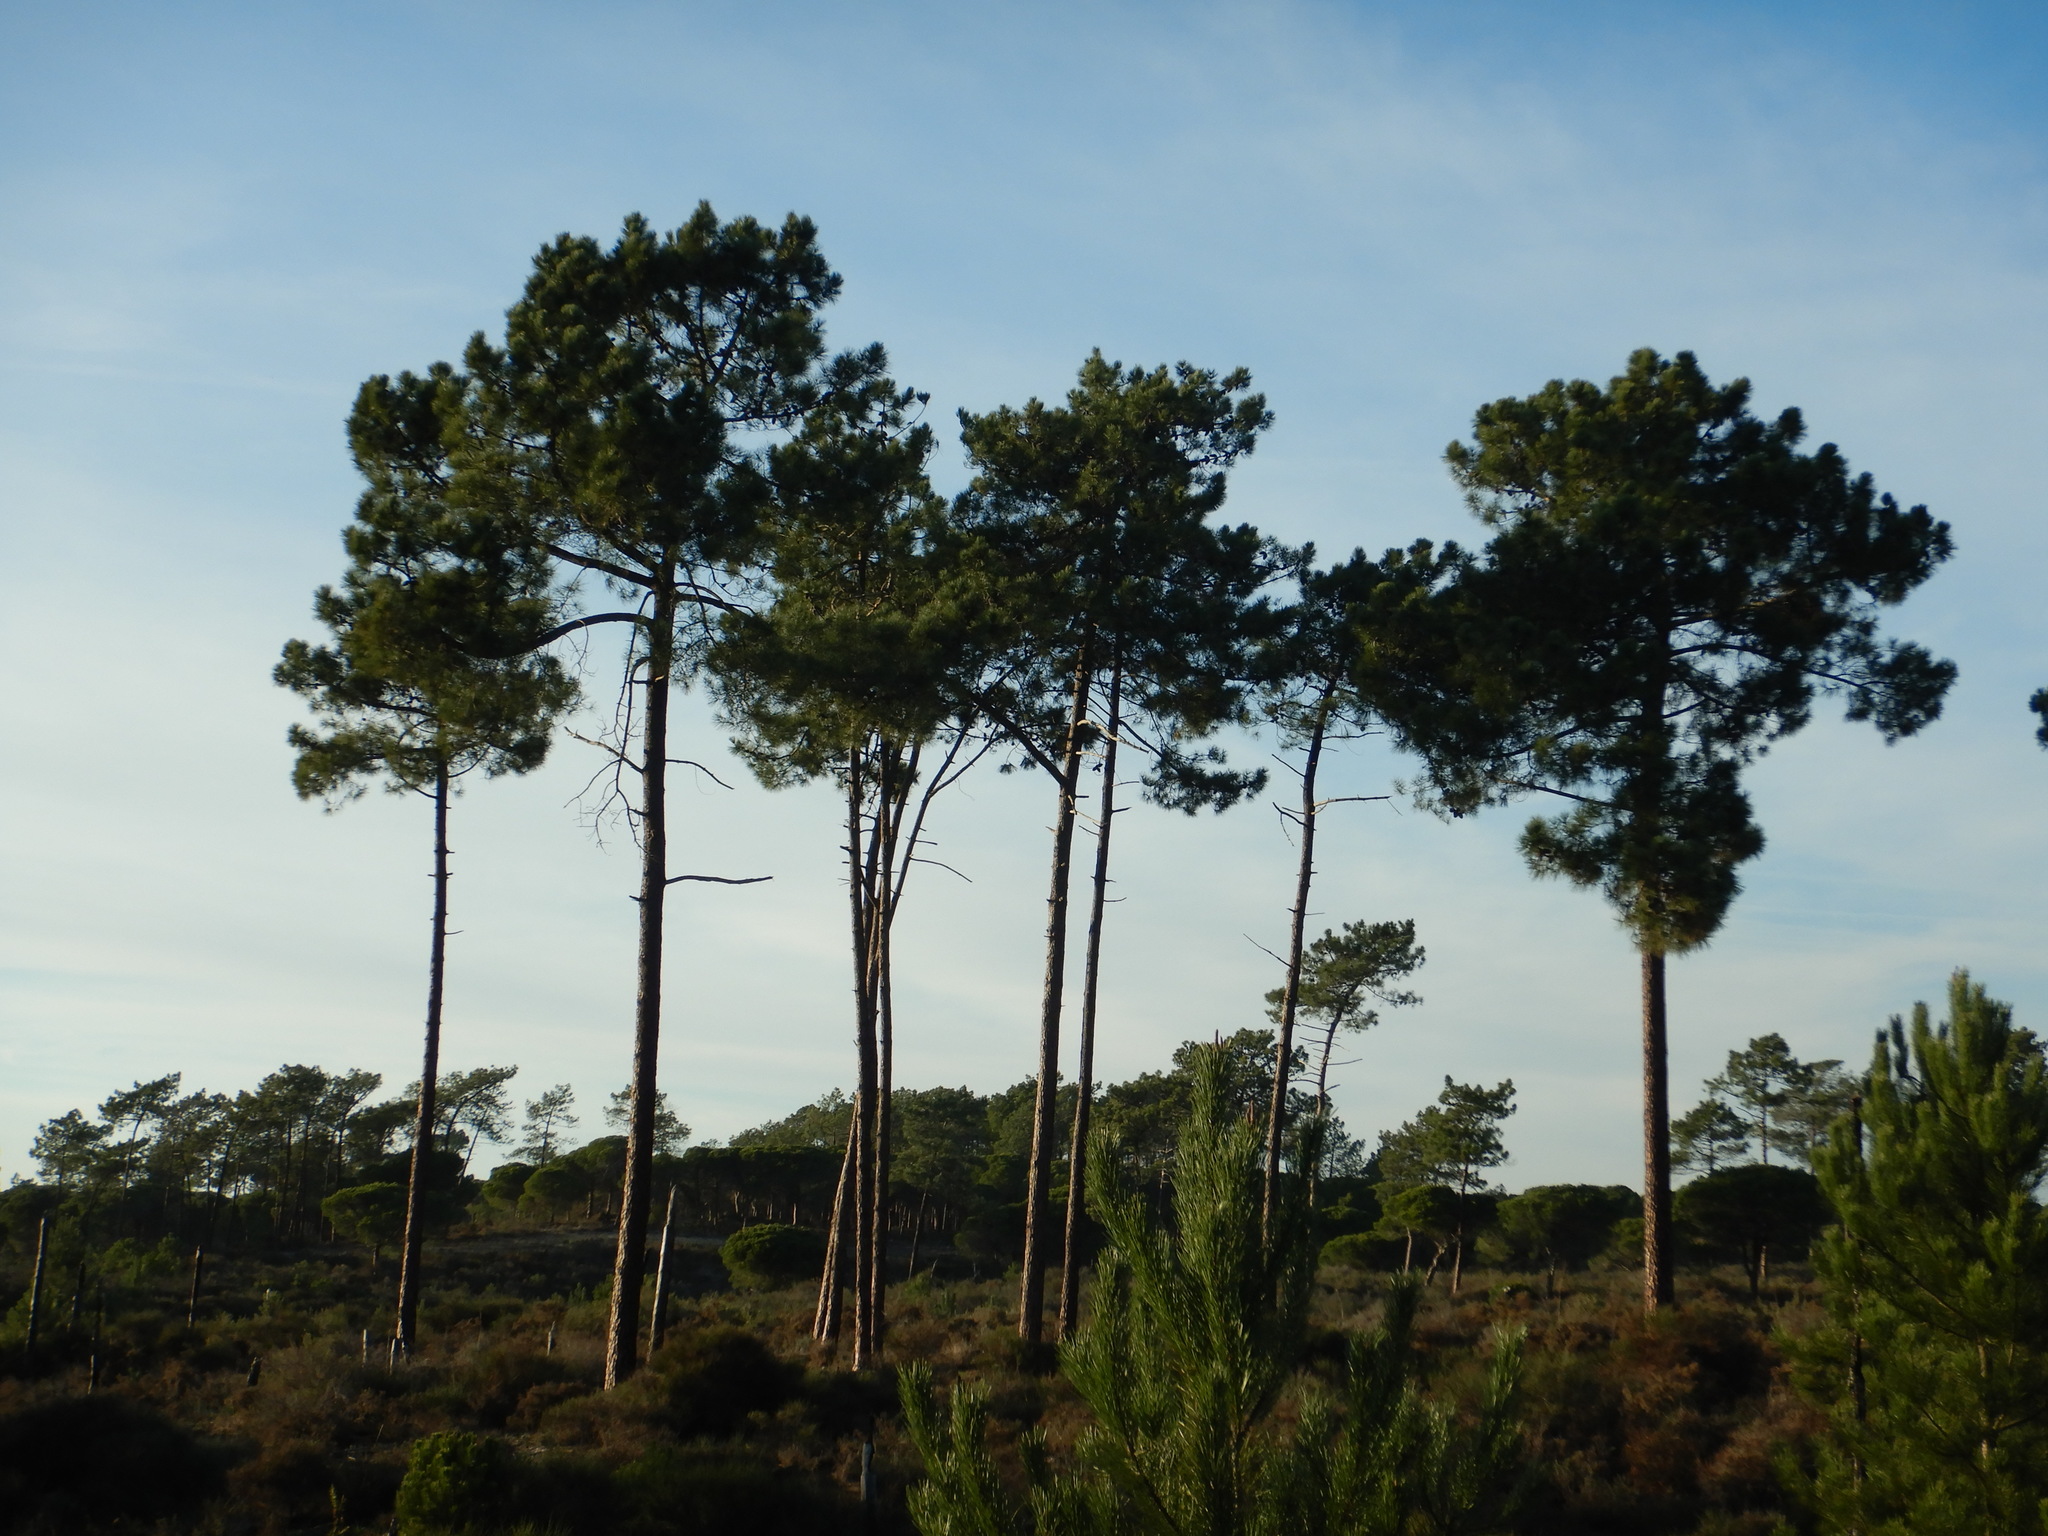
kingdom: Plantae
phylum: Tracheophyta
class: Pinopsida
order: Pinales
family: Pinaceae
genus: Pinus
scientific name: Pinus pinaster
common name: Maritime pine
